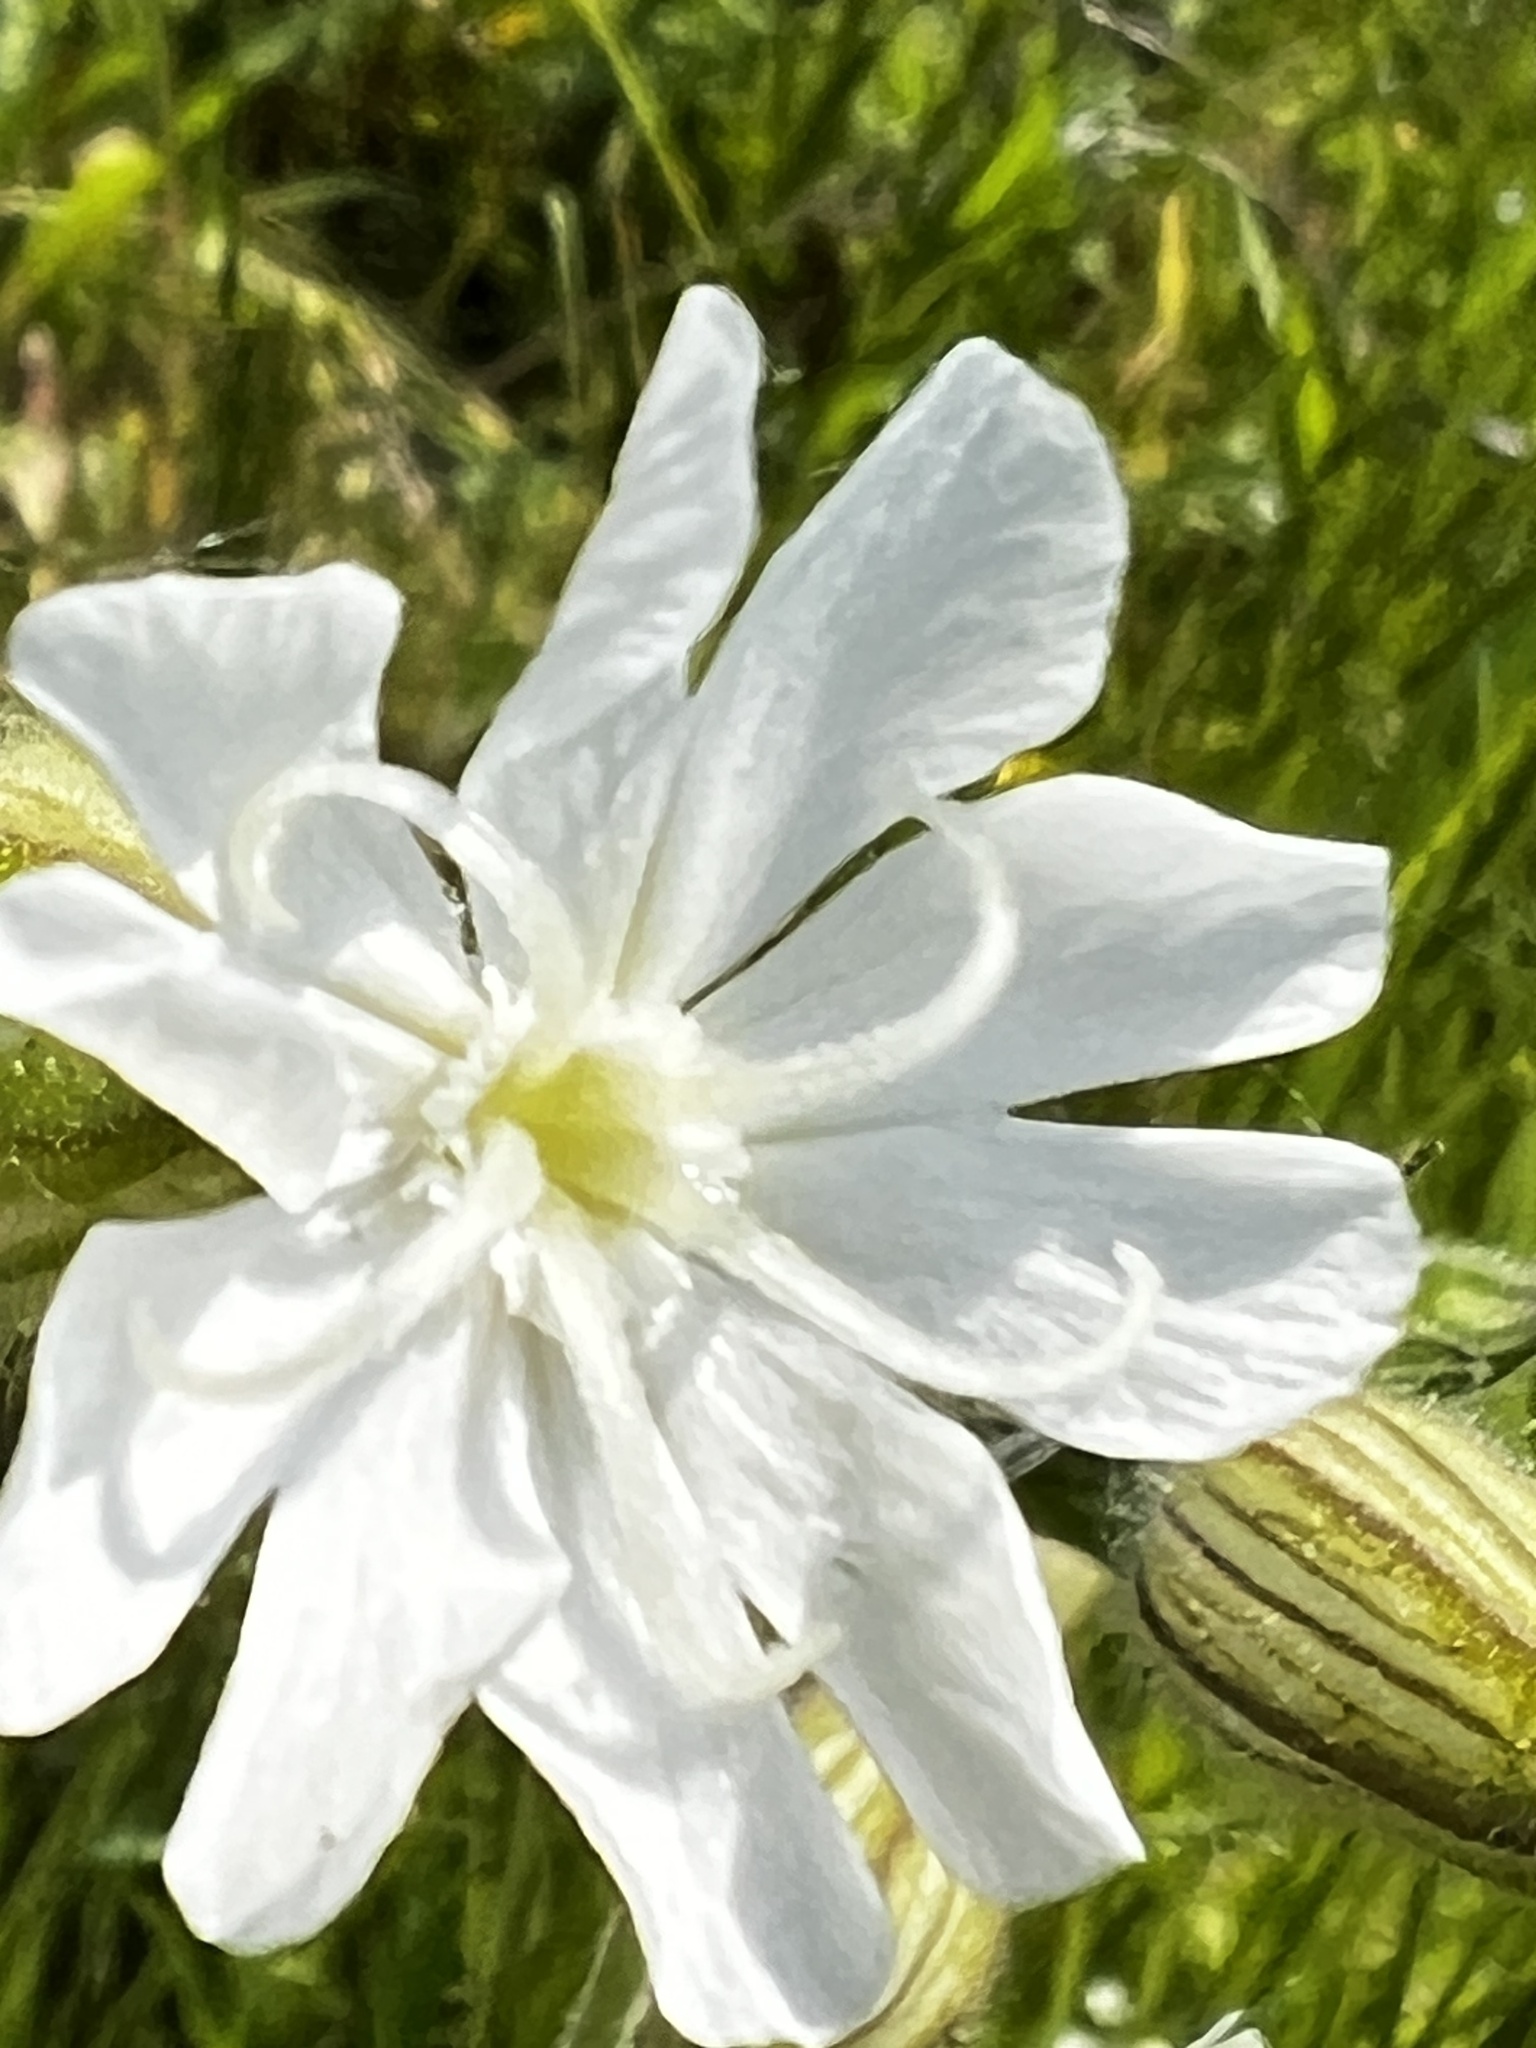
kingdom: Plantae
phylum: Tracheophyta
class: Magnoliopsida
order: Caryophyllales
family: Caryophyllaceae
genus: Silene
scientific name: Silene latifolia
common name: White campion
